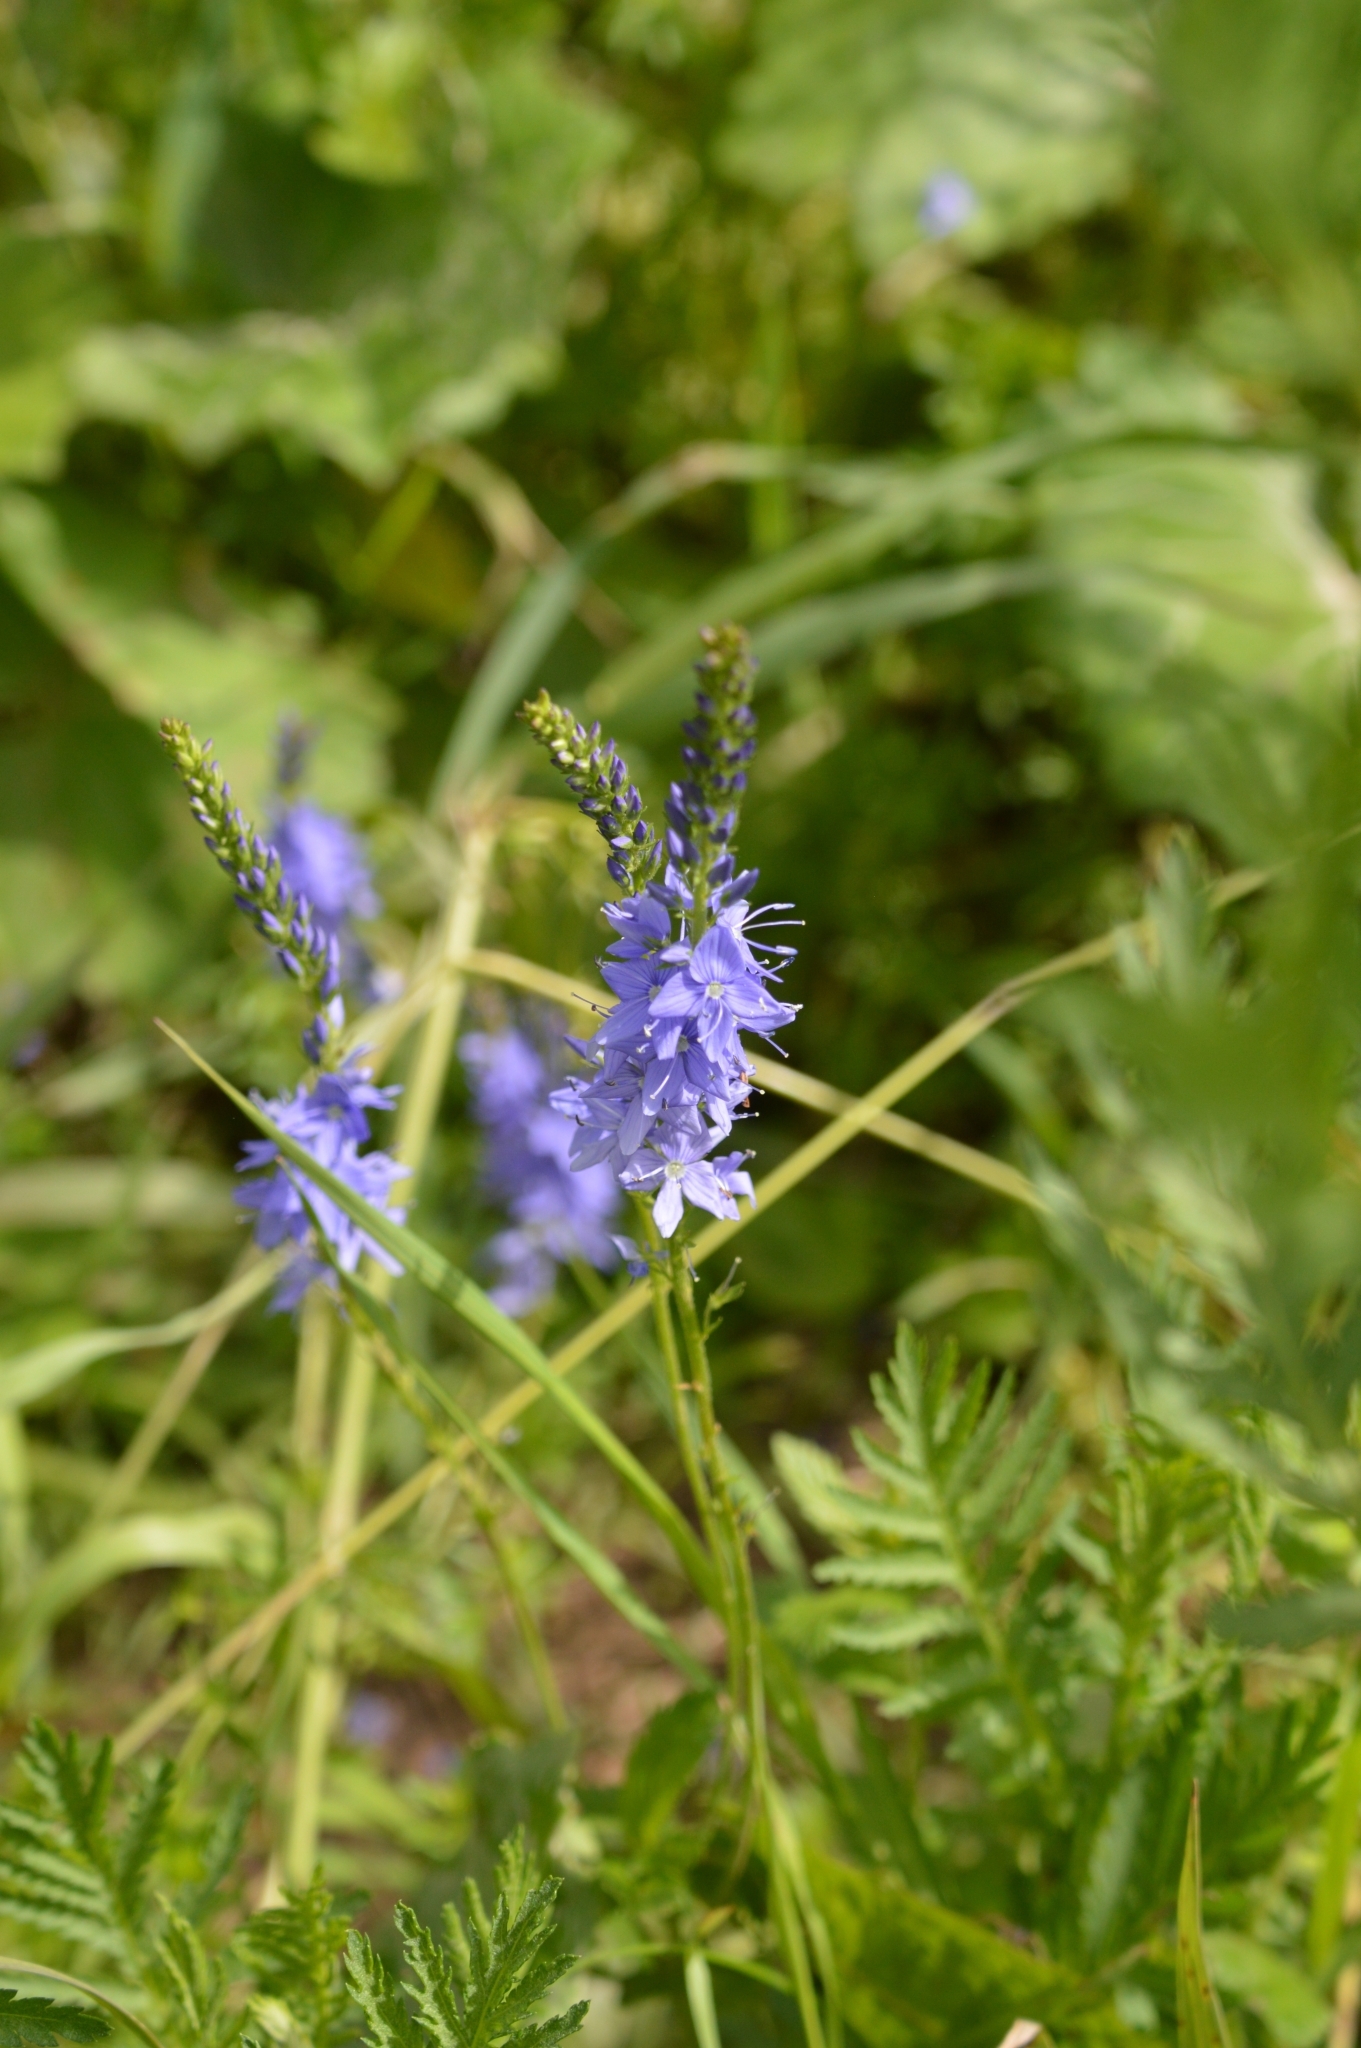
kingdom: Plantae
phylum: Tracheophyta
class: Magnoliopsida
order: Lamiales
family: Plantaginaceae
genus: Veronica
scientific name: Veronica teucrium
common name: Large speedwell
